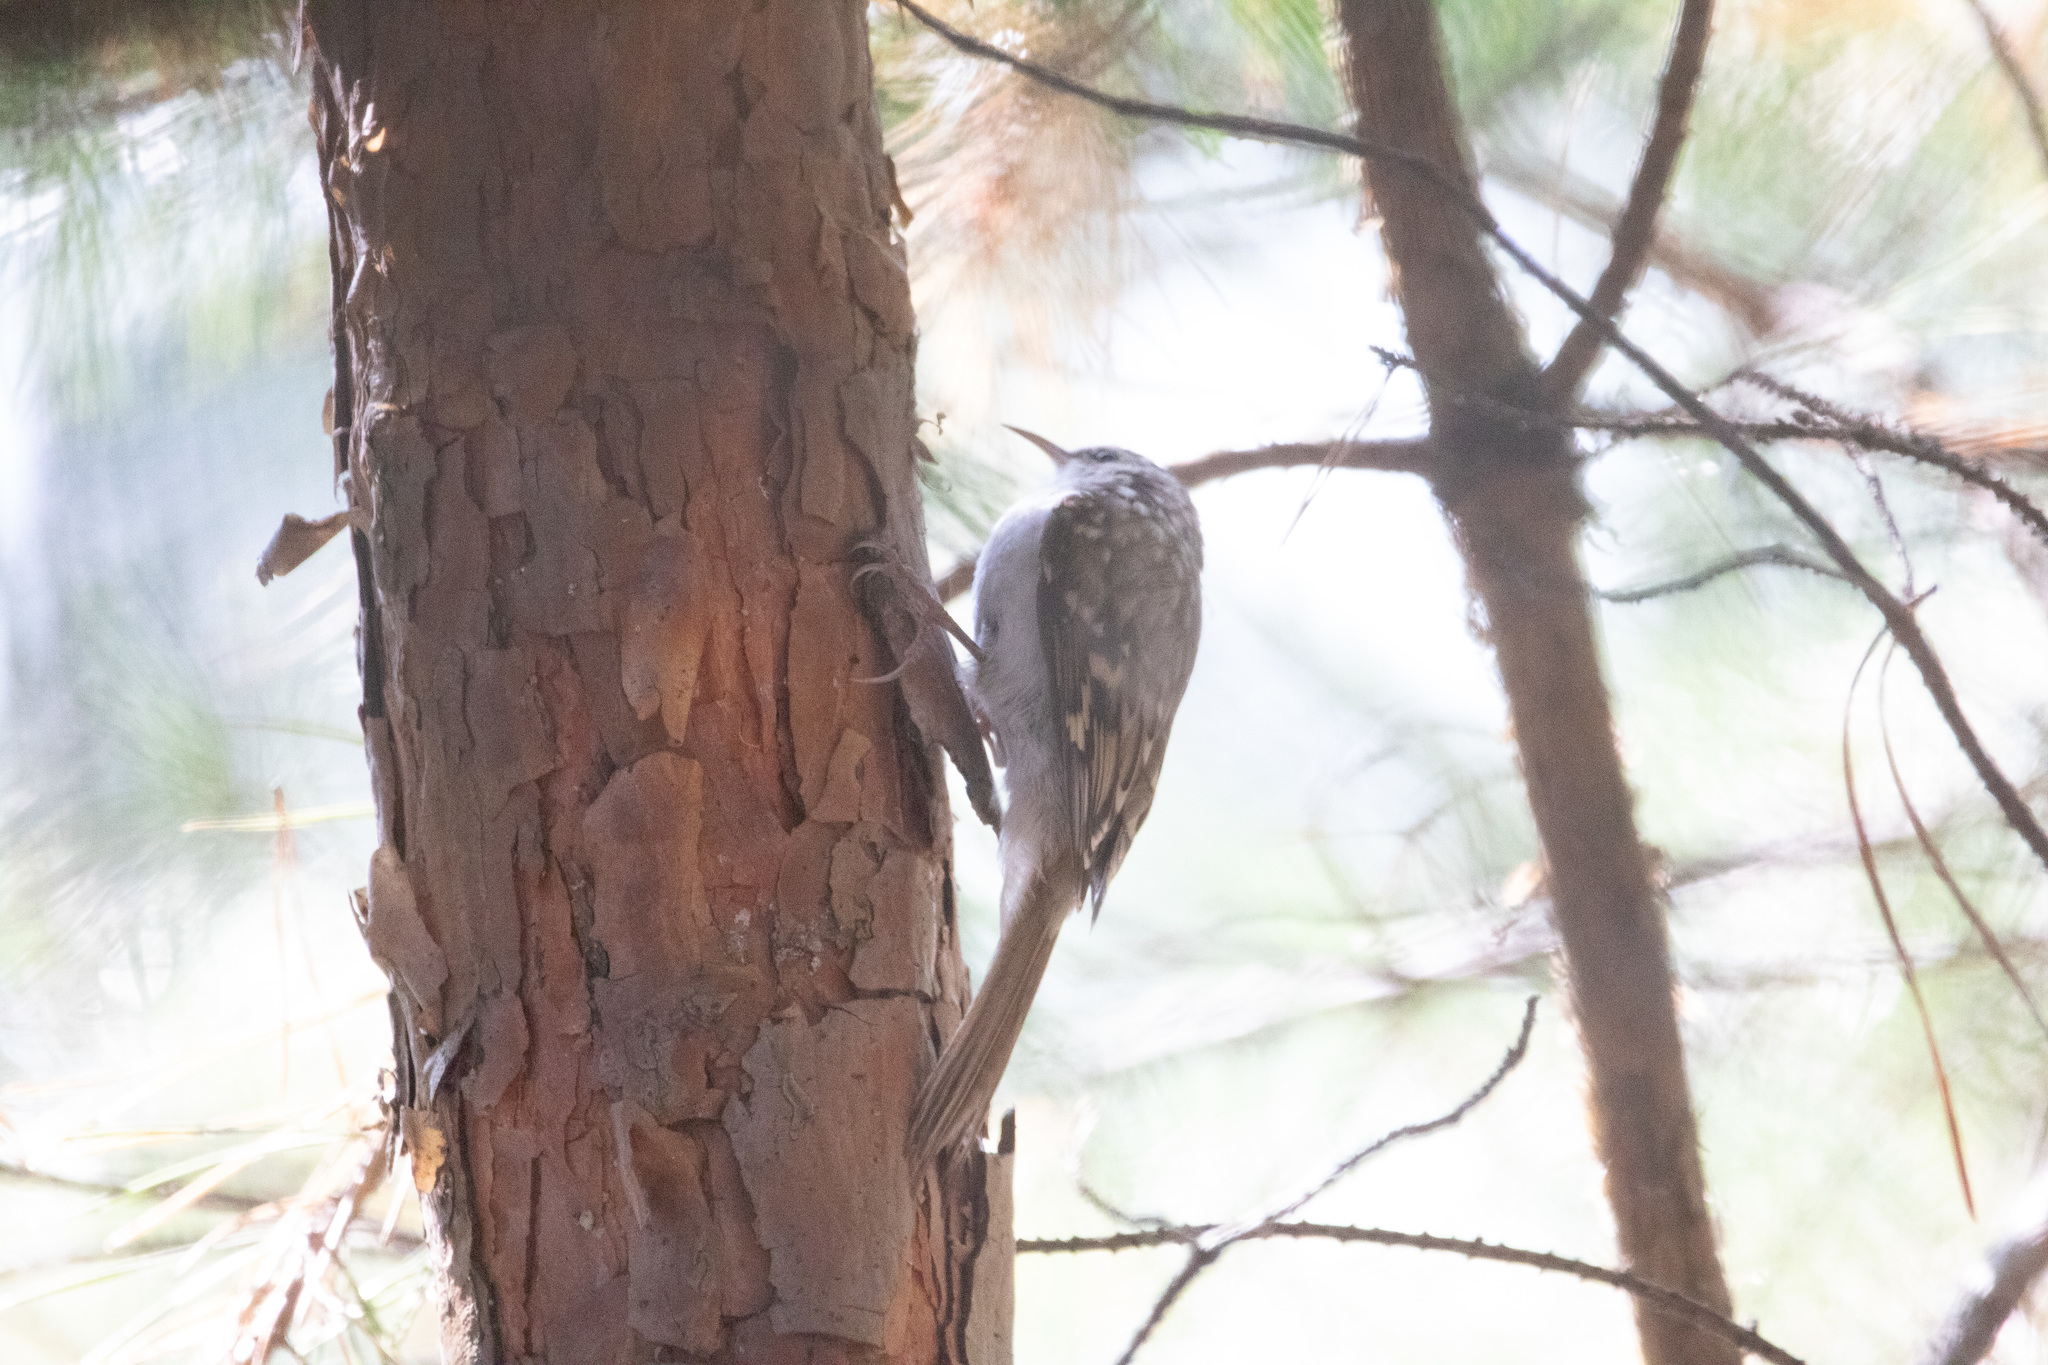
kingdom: Animalia
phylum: Chordata
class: Aves
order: Passeriformes
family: Certhiidae
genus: Certhia
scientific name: Certhia familiaris
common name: Eurasian treecreeper
